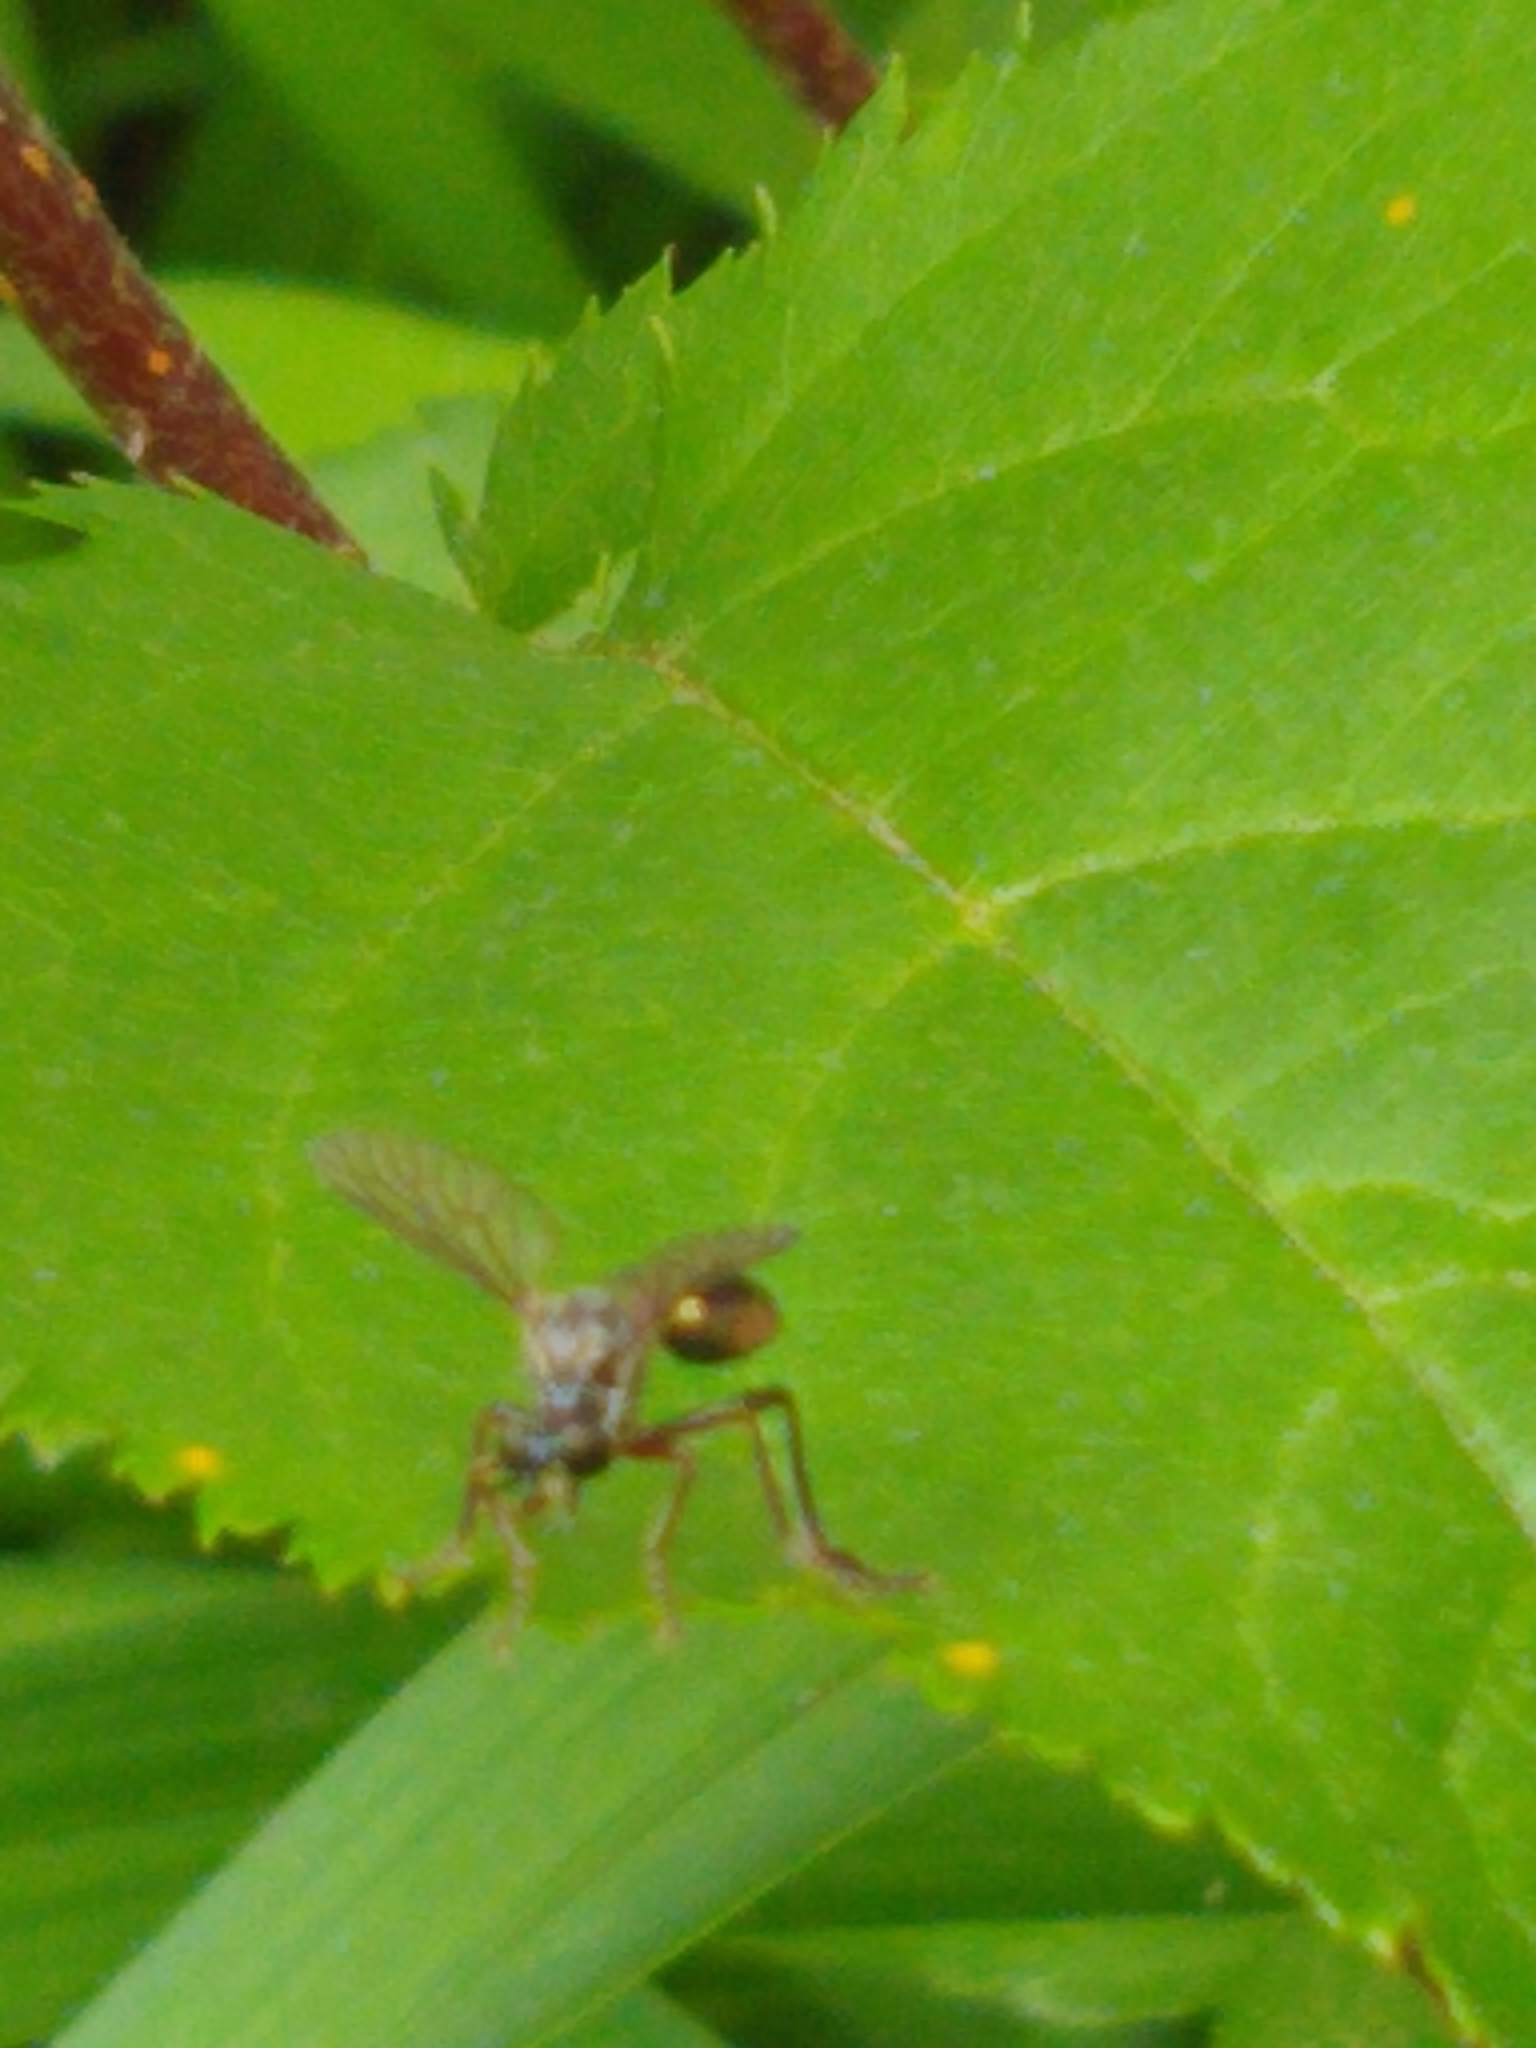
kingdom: Animalia
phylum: Arthropoda
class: Insecta
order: Diptera
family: Asilidae
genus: Dioctria
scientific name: Dioctria hyalipennis
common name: Stripe-legged robberfly
